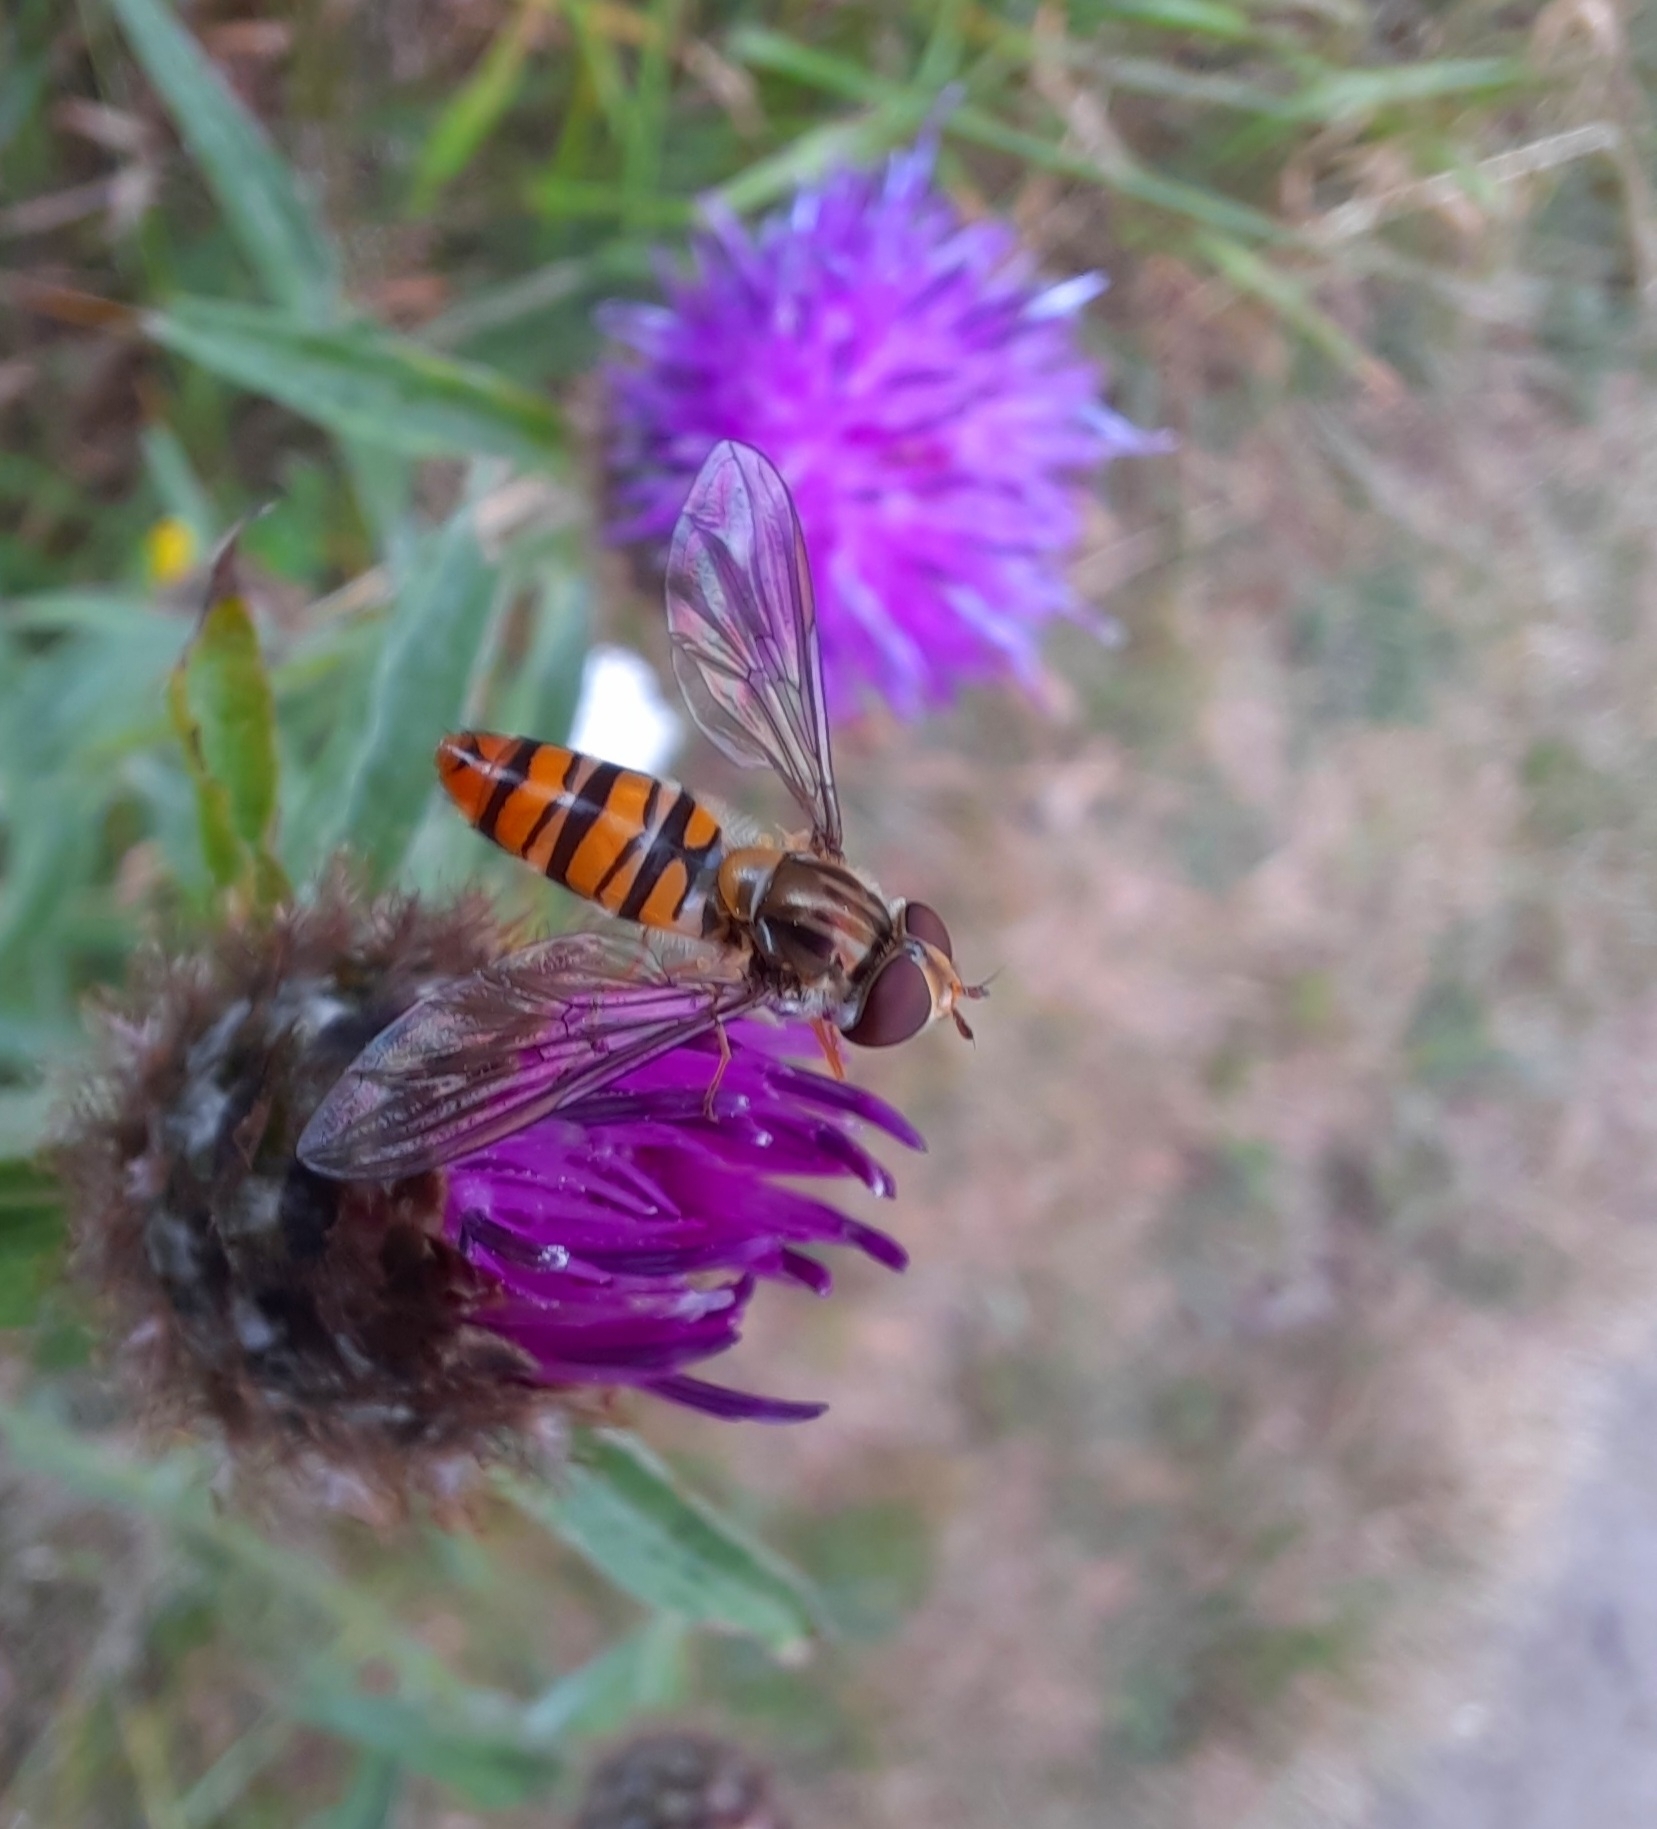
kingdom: Animalia
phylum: Arthropoda
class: Insecta
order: Diptera
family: Syrphidae
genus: Episyrphus
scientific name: Episyrphus balteatus
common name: Marmalade hoverfly
